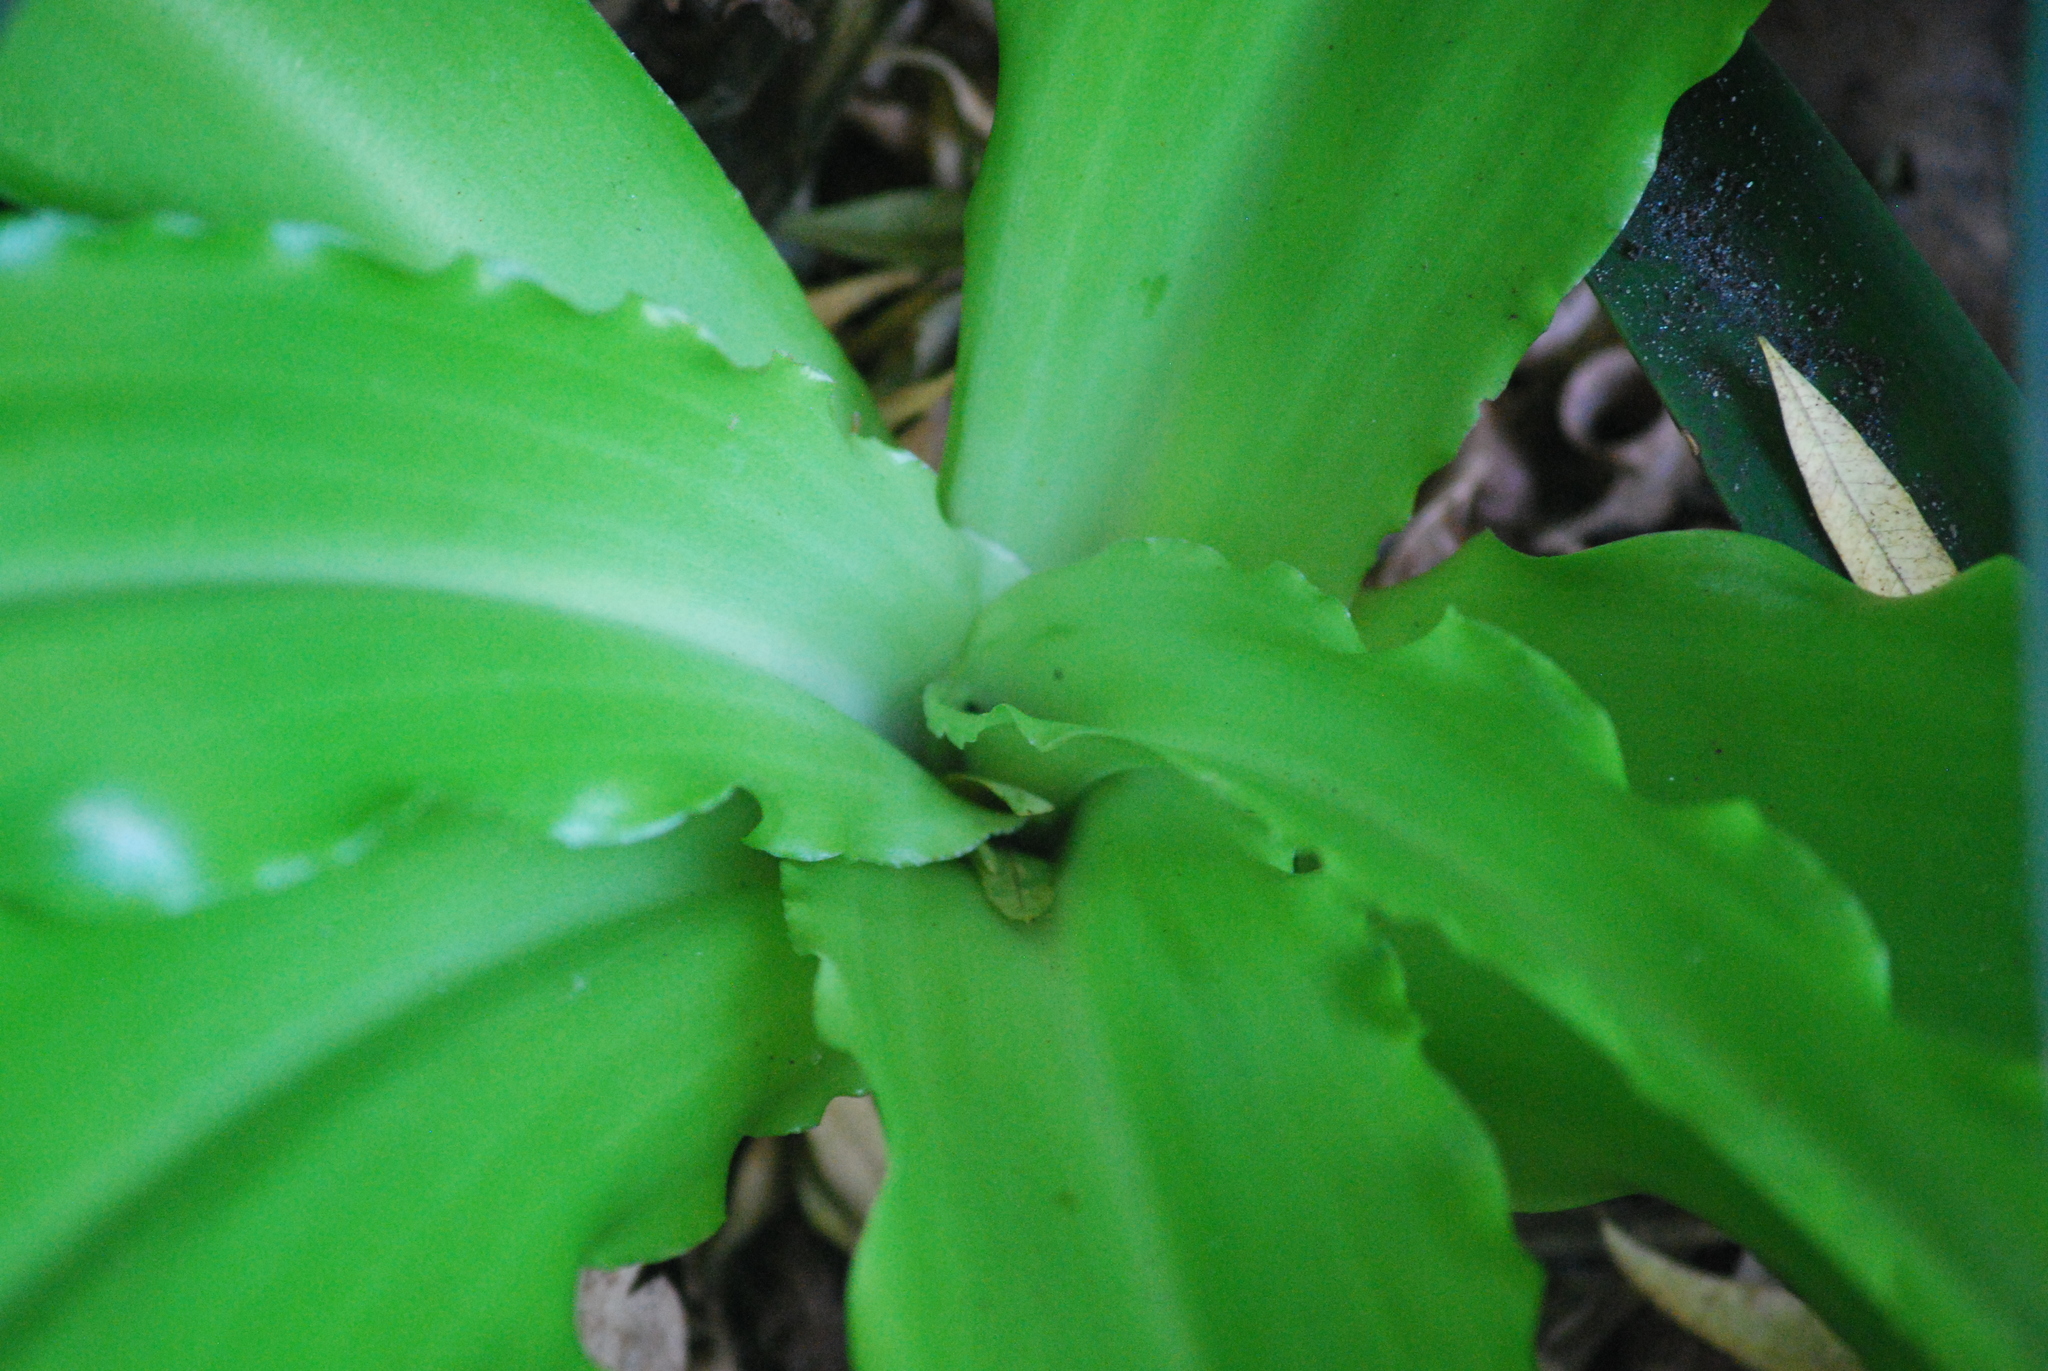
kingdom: Plantae
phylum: Tracheophyta
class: Liliopsida
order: Asparagales
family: Asparagaceae
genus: Veltheimia
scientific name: Veltheimia bracteata
